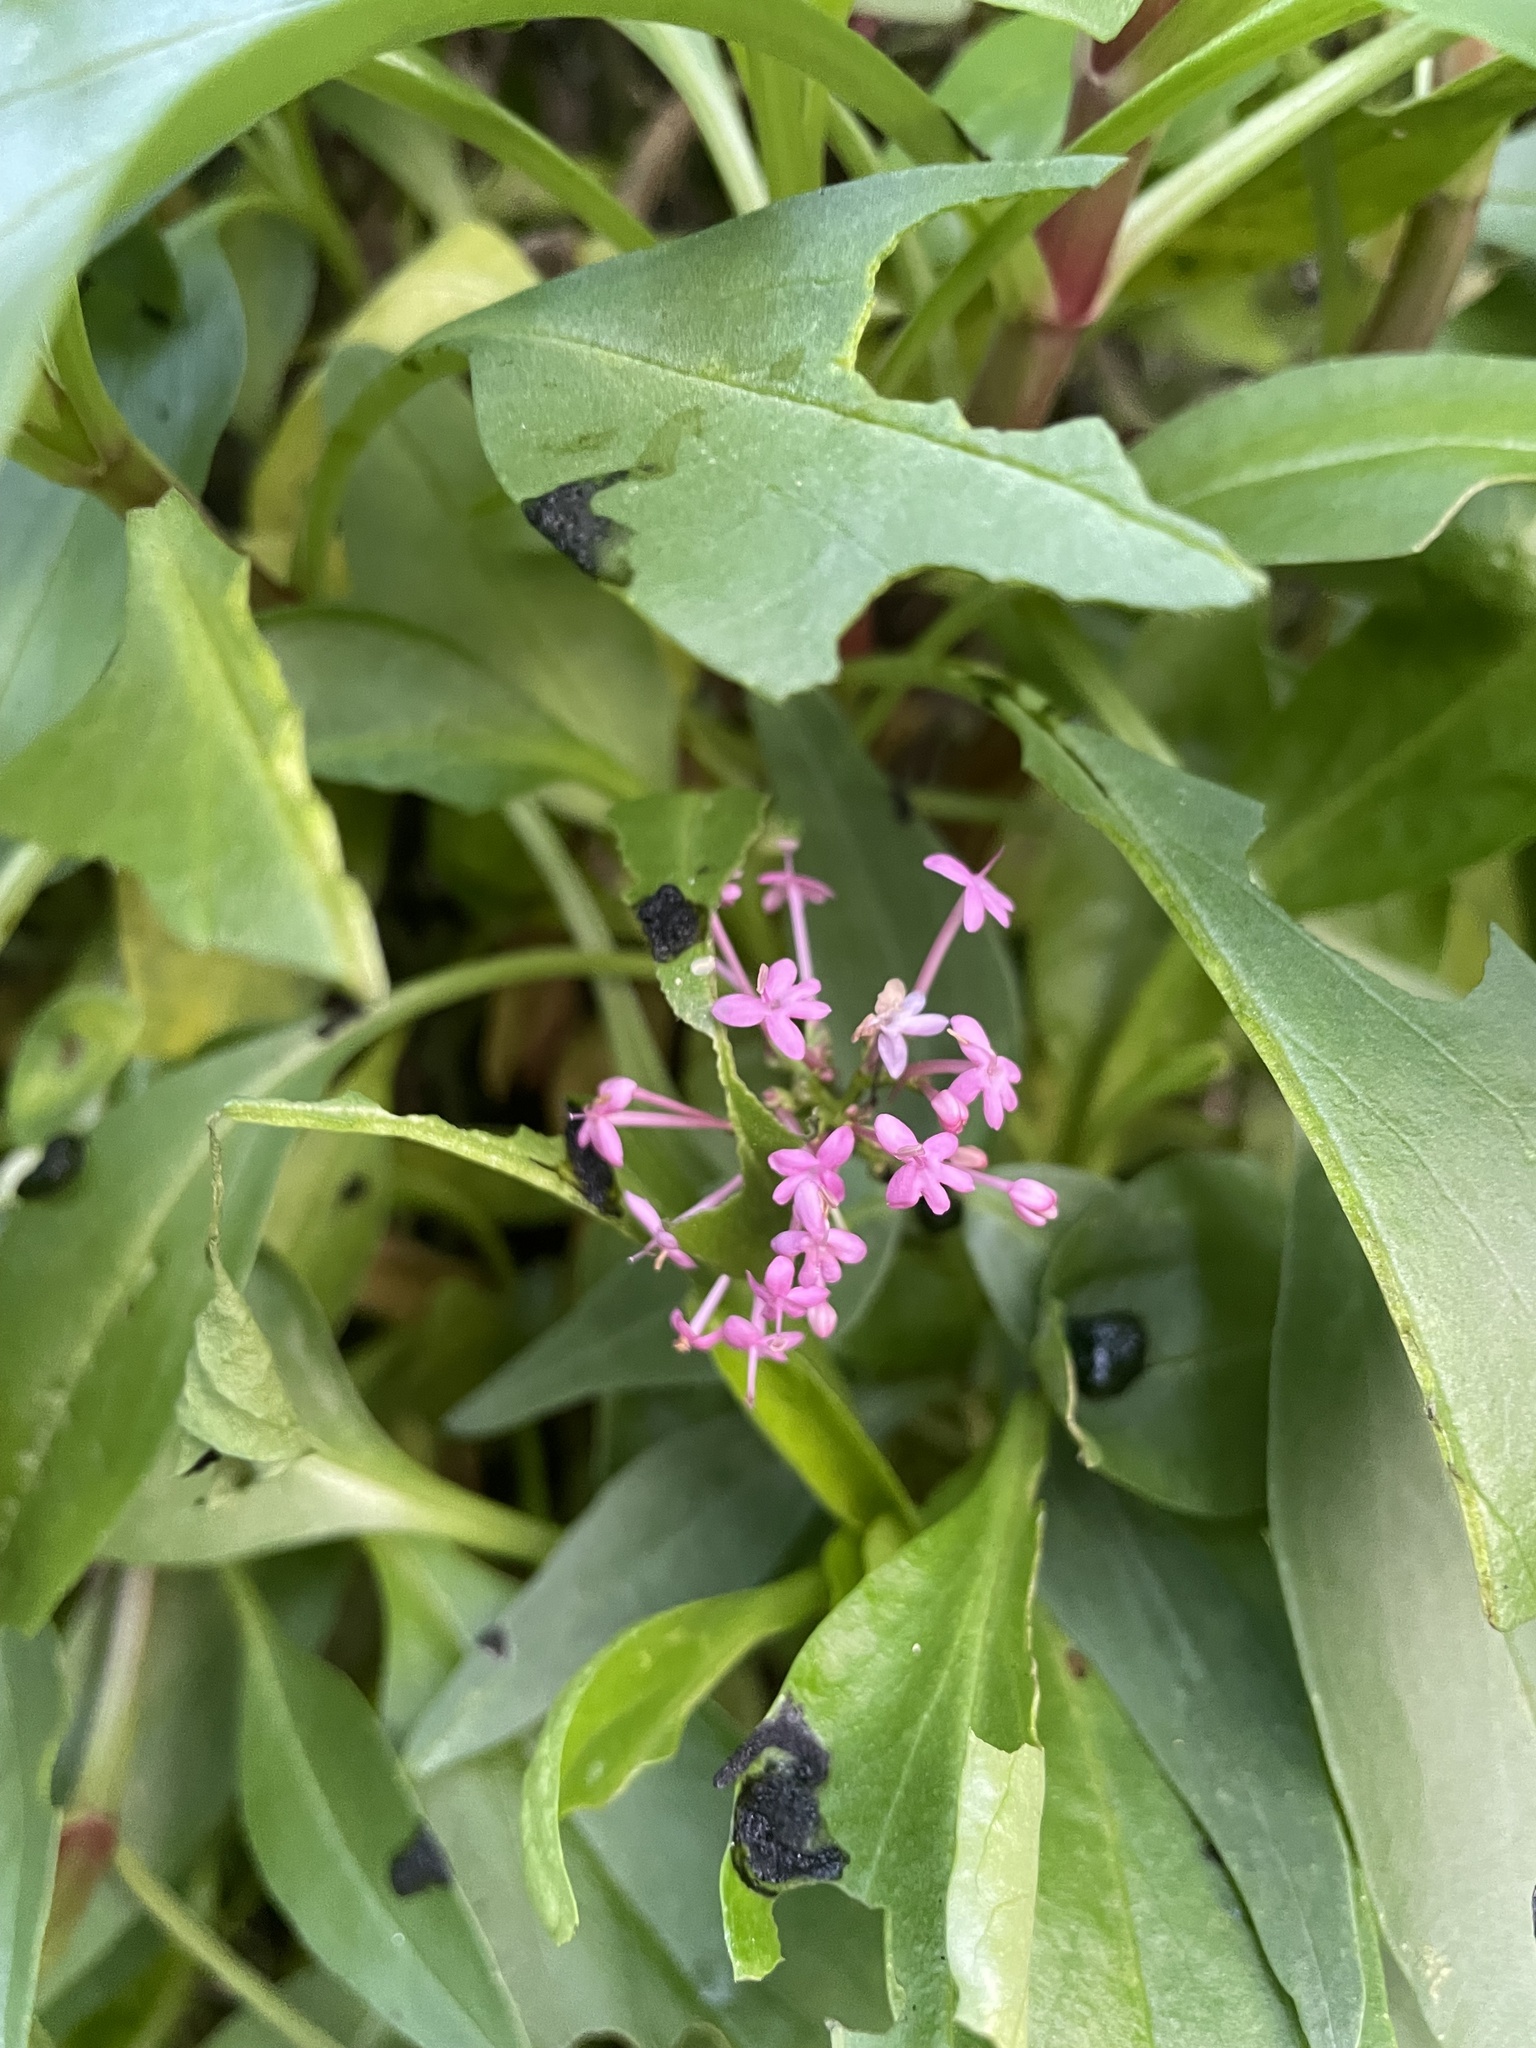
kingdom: Plantae
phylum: Tracheophyta
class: Magnoliopsida
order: Dipsacales
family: Caprifoliaceae
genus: Centranthus
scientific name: Centranthus ruber
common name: Red valerian
